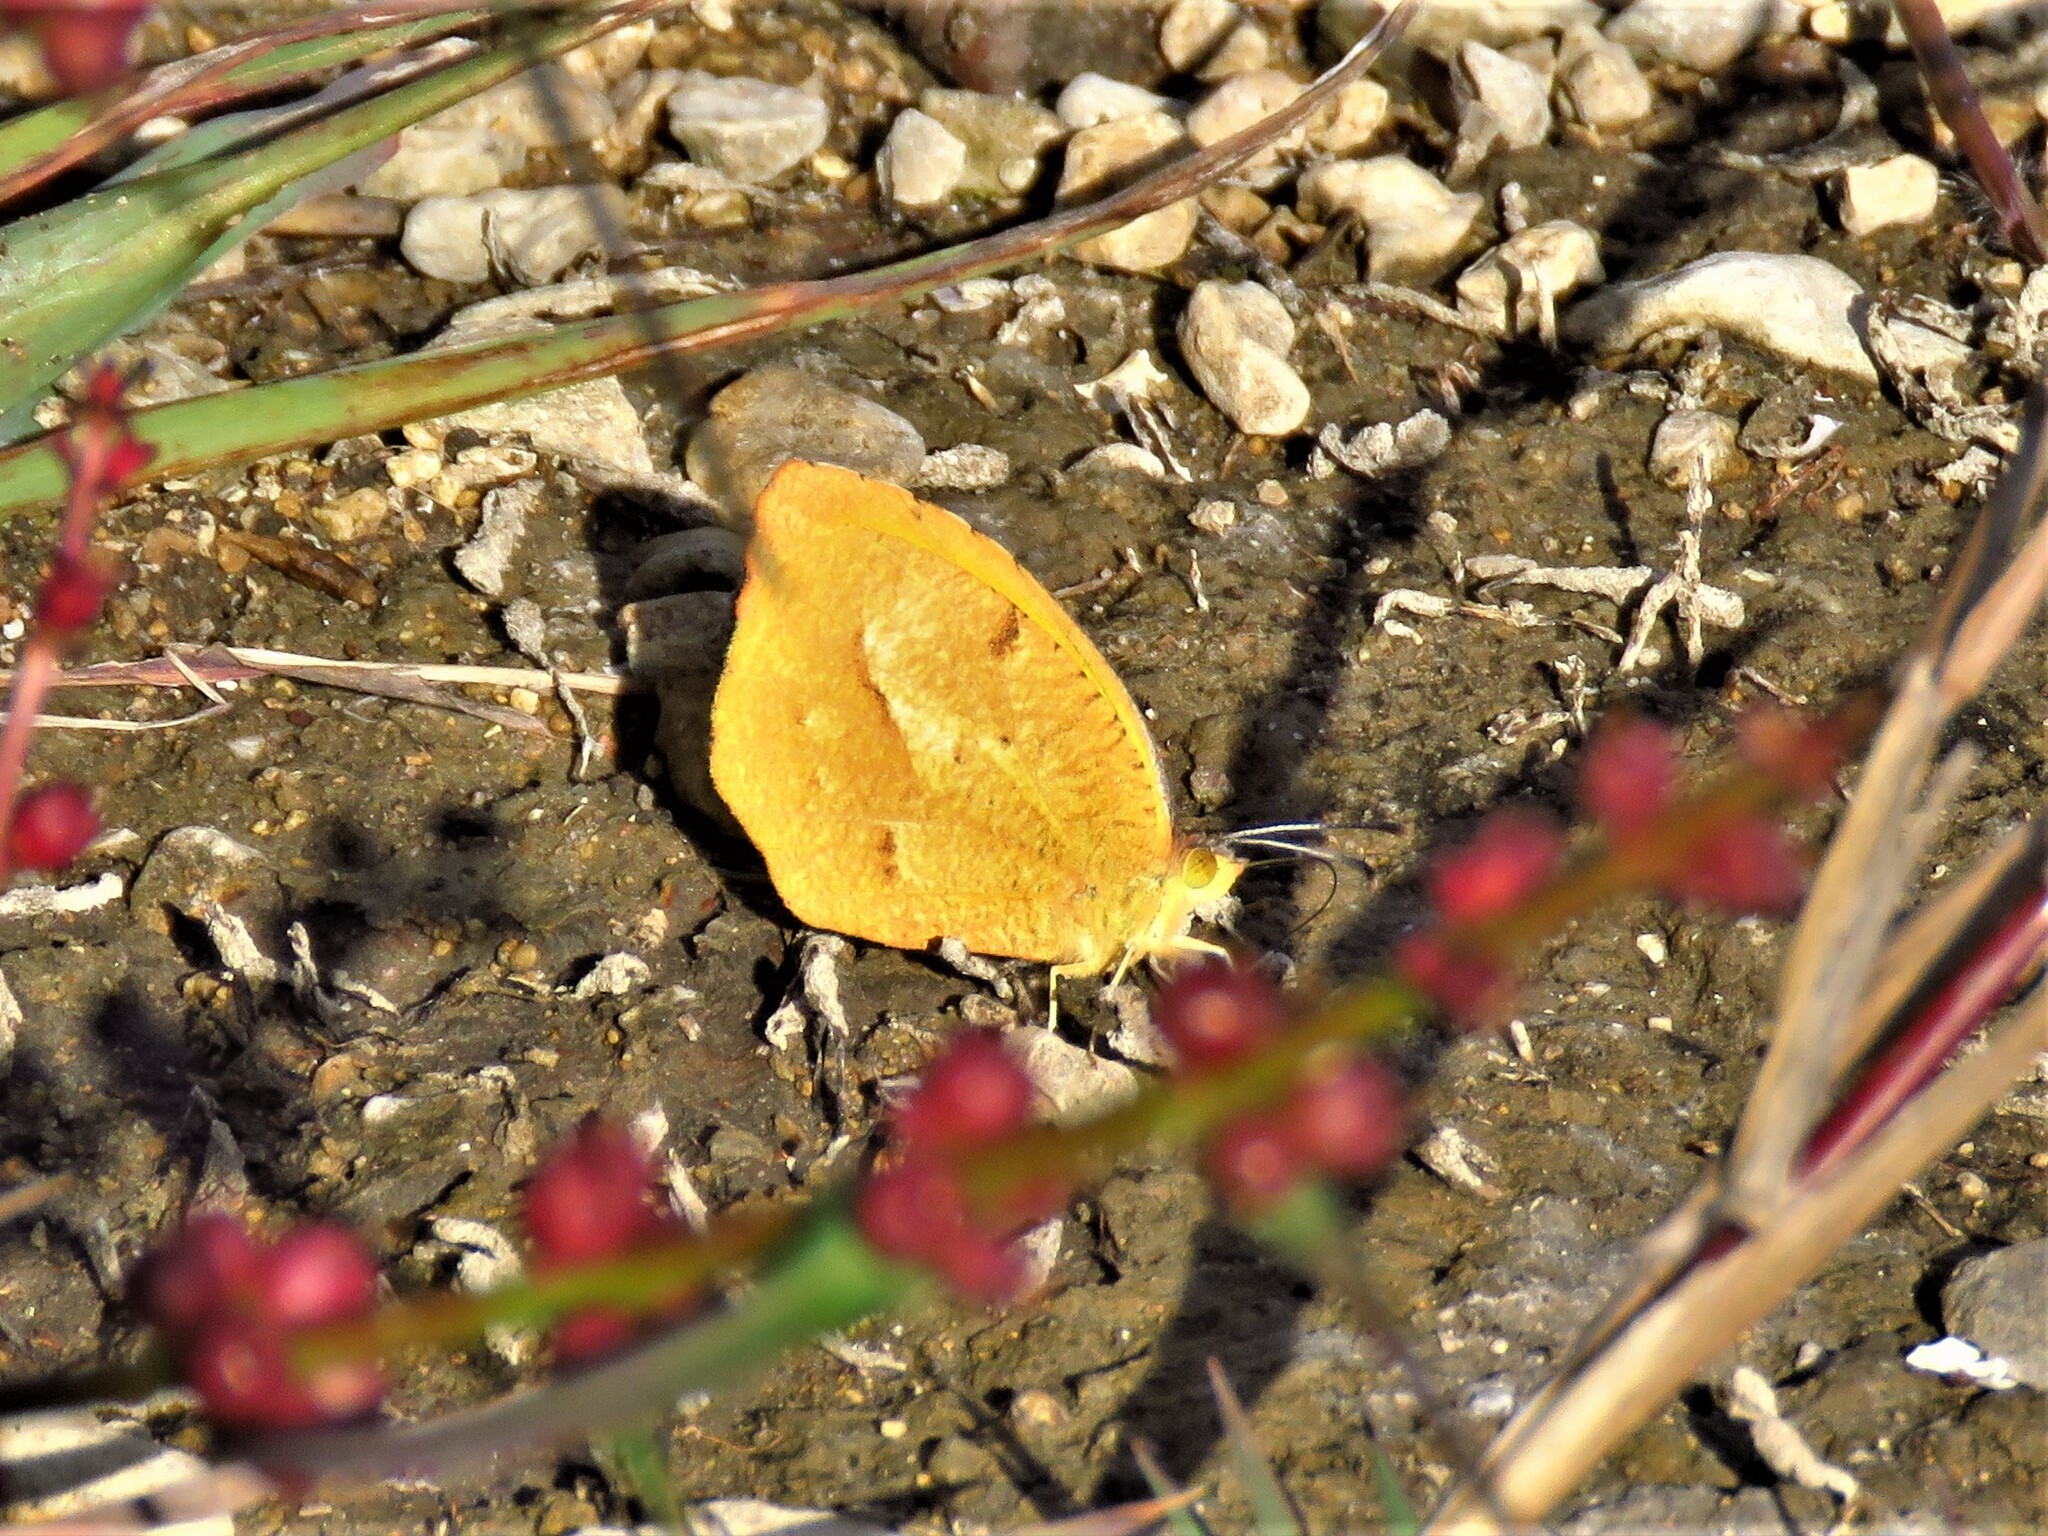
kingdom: Animalia
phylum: Arthropoda
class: Insecta
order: Lepidoptera
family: Pieridae
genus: Abaeis
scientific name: Abaeis nicippe
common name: Sleepy orange
